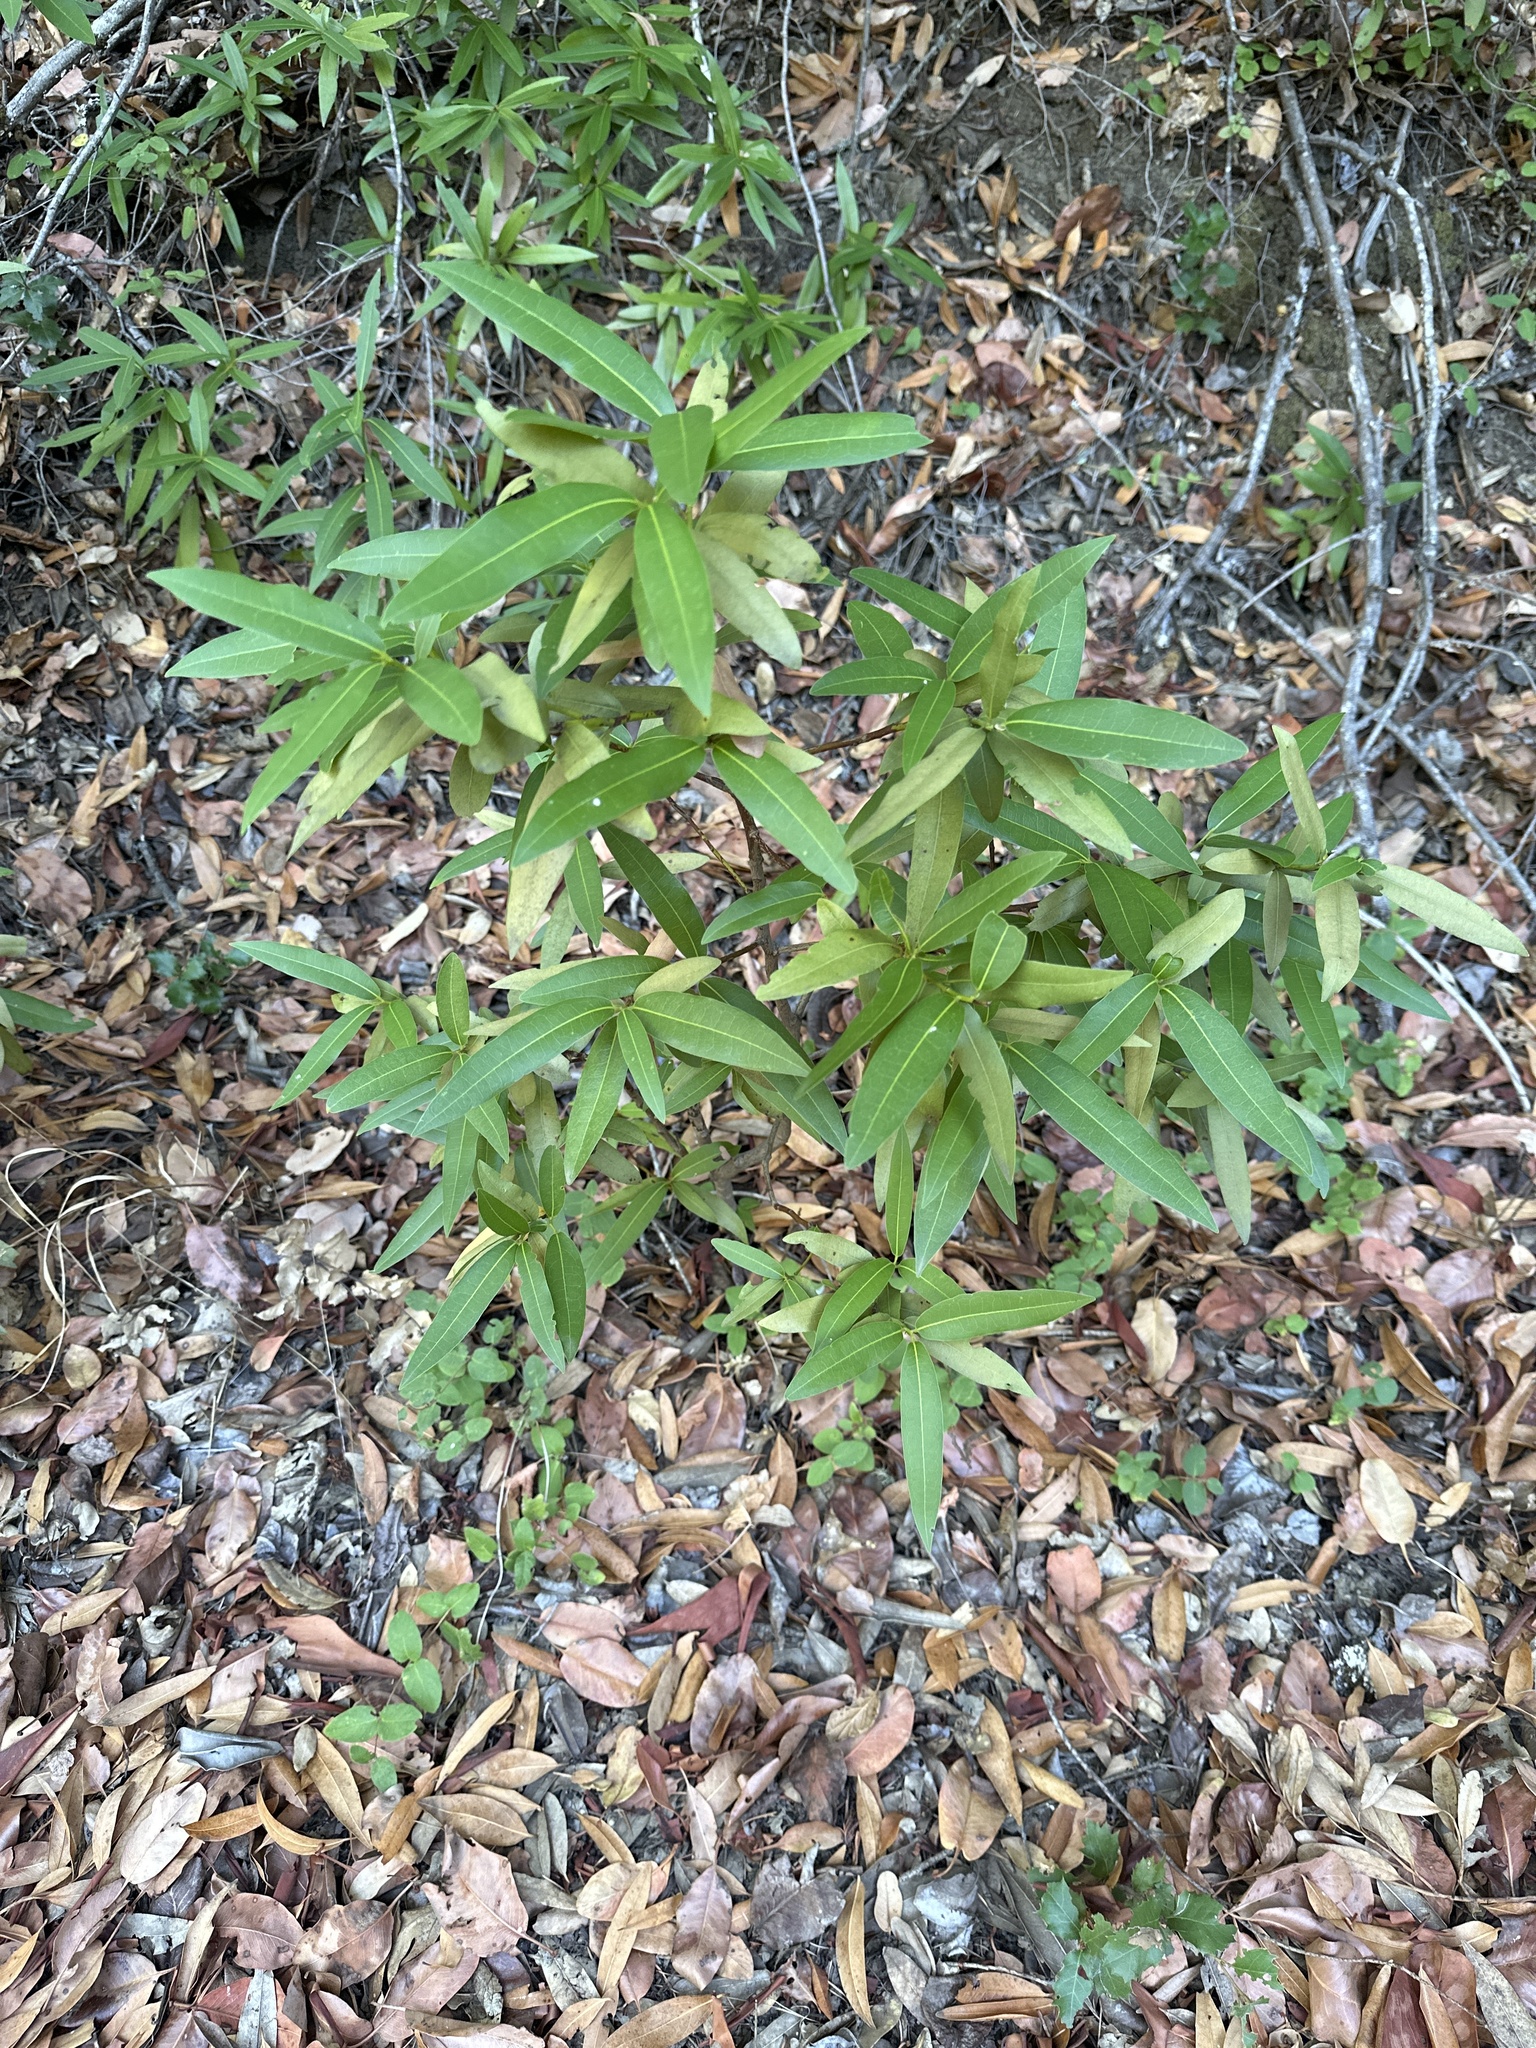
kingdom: Plantae
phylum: Tracheophyta
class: Magnoliopsida
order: Laurales
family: Lauraceae
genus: Umbellularia
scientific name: Umbellularia californica
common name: California bay
